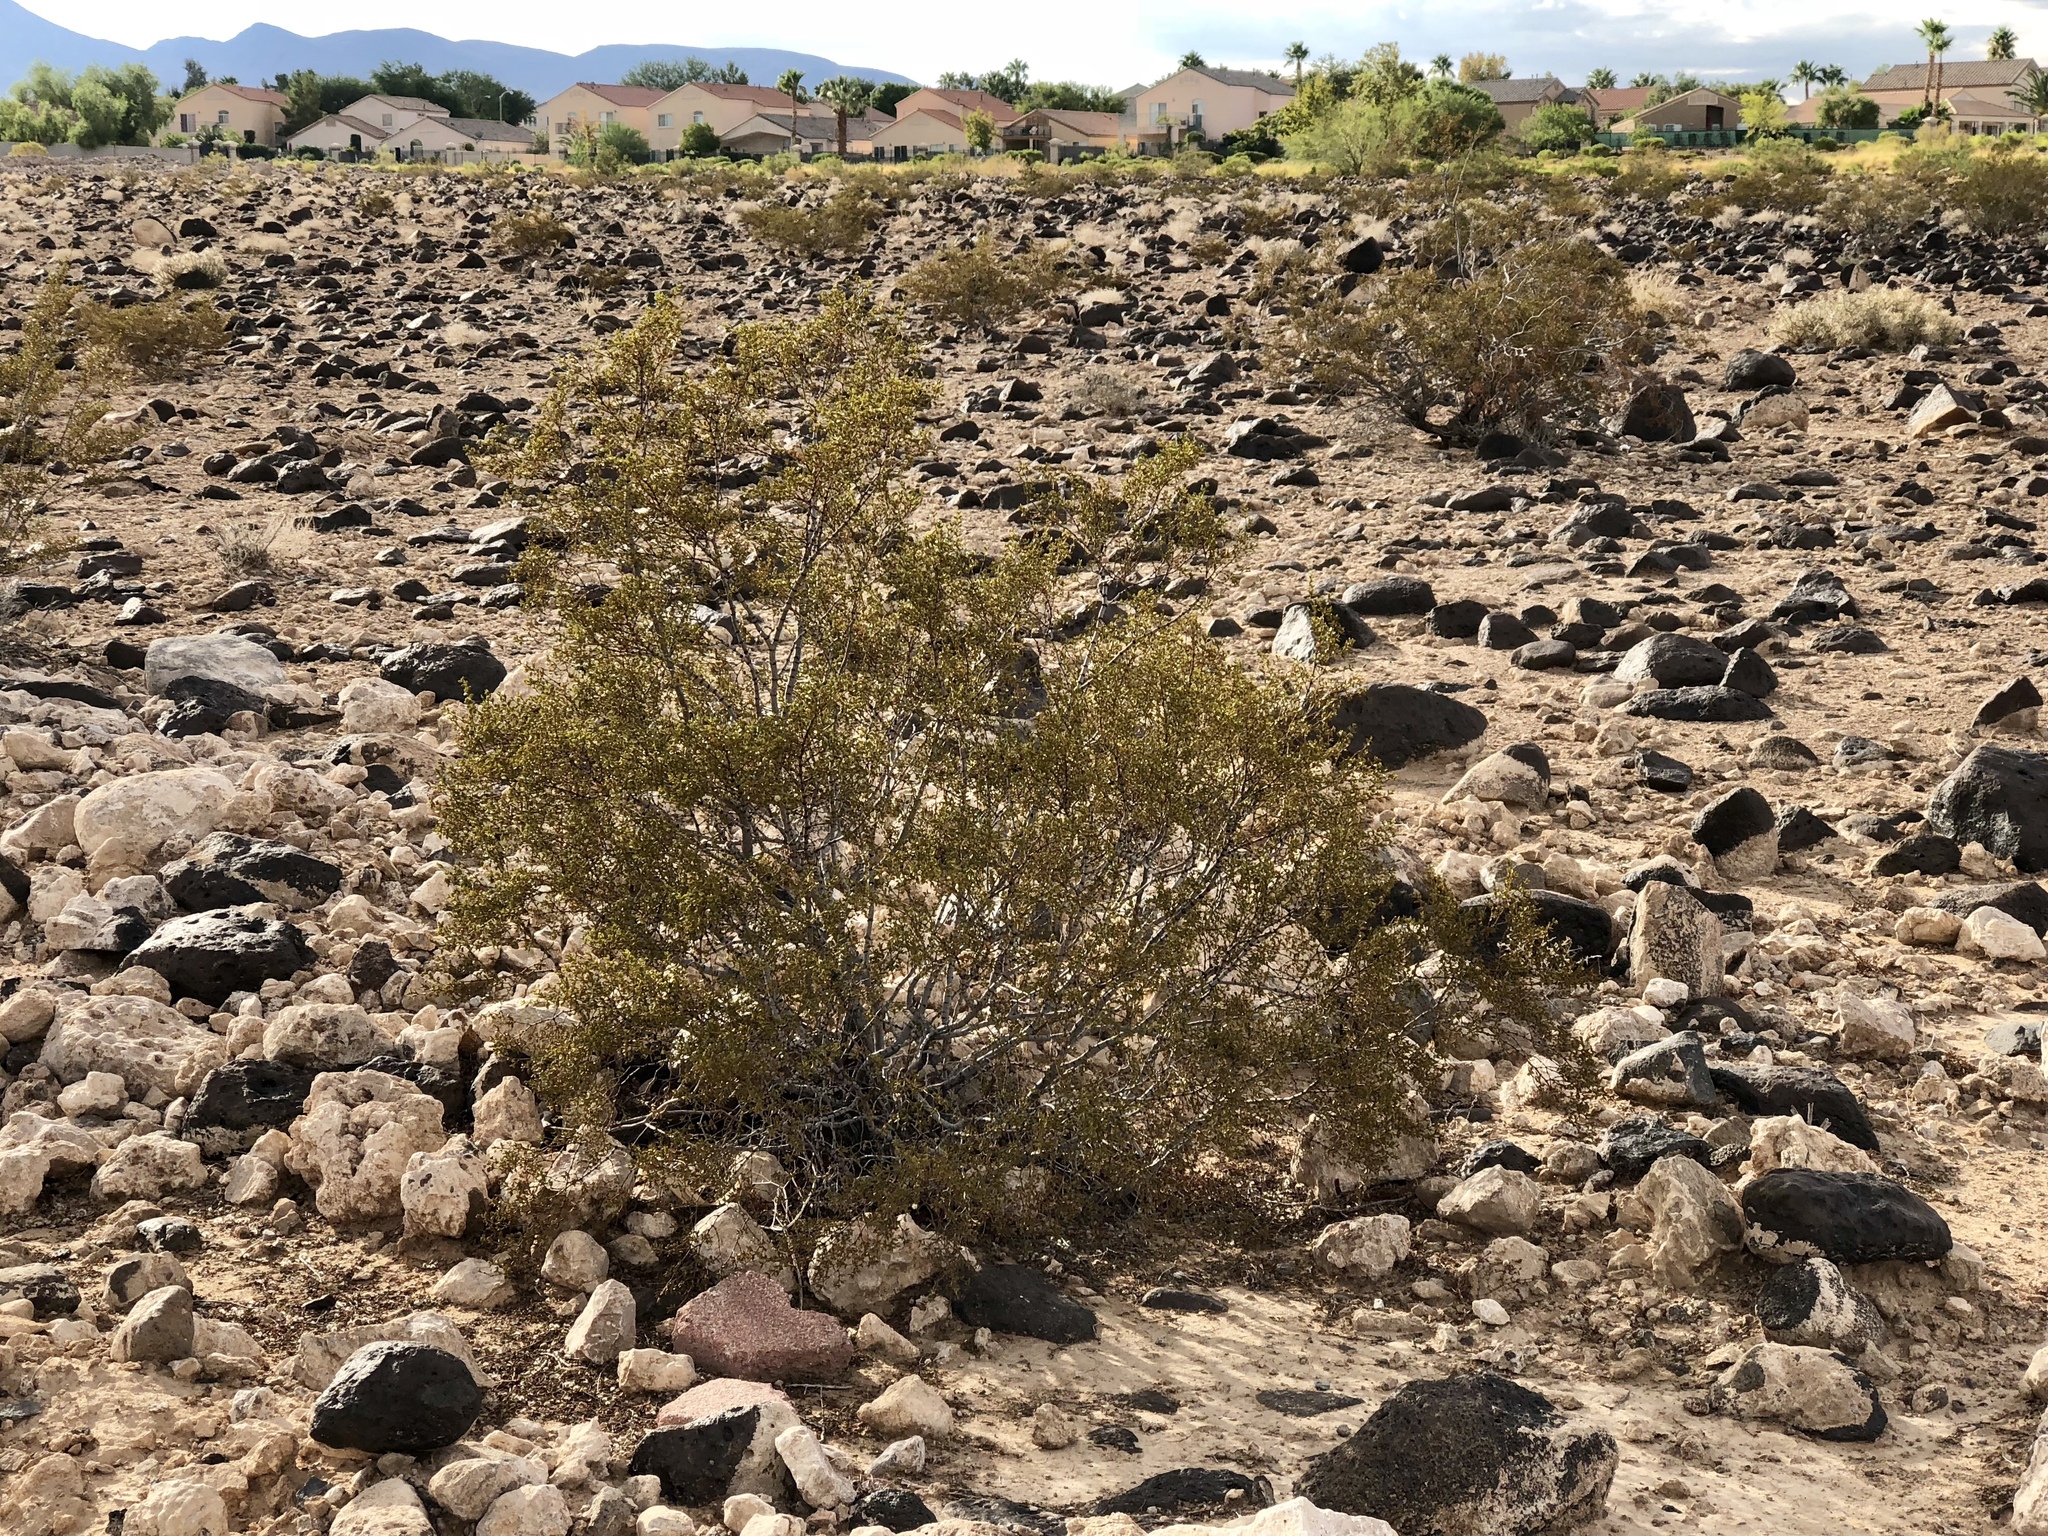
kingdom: Plantae
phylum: Tracheophyta
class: Magnoliopsida
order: Zygophyllales
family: Zygophyllaceae
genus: Larrea
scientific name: Larrea tridentata
